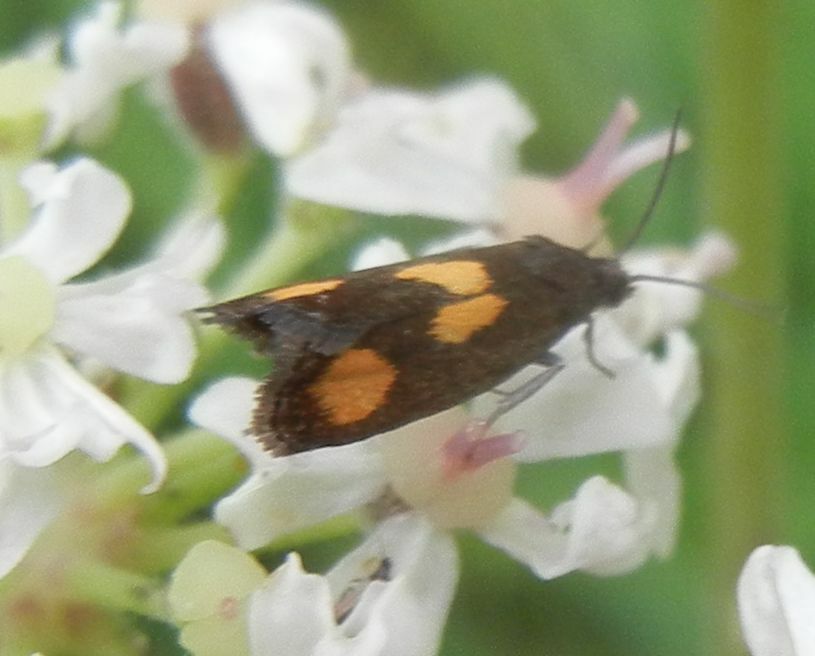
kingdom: Animalia
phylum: Arthropoda
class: Insecta
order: Lepidoptera
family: Tortricidae
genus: Pammene
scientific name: Pammene aurana
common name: Orange-spot piercer
